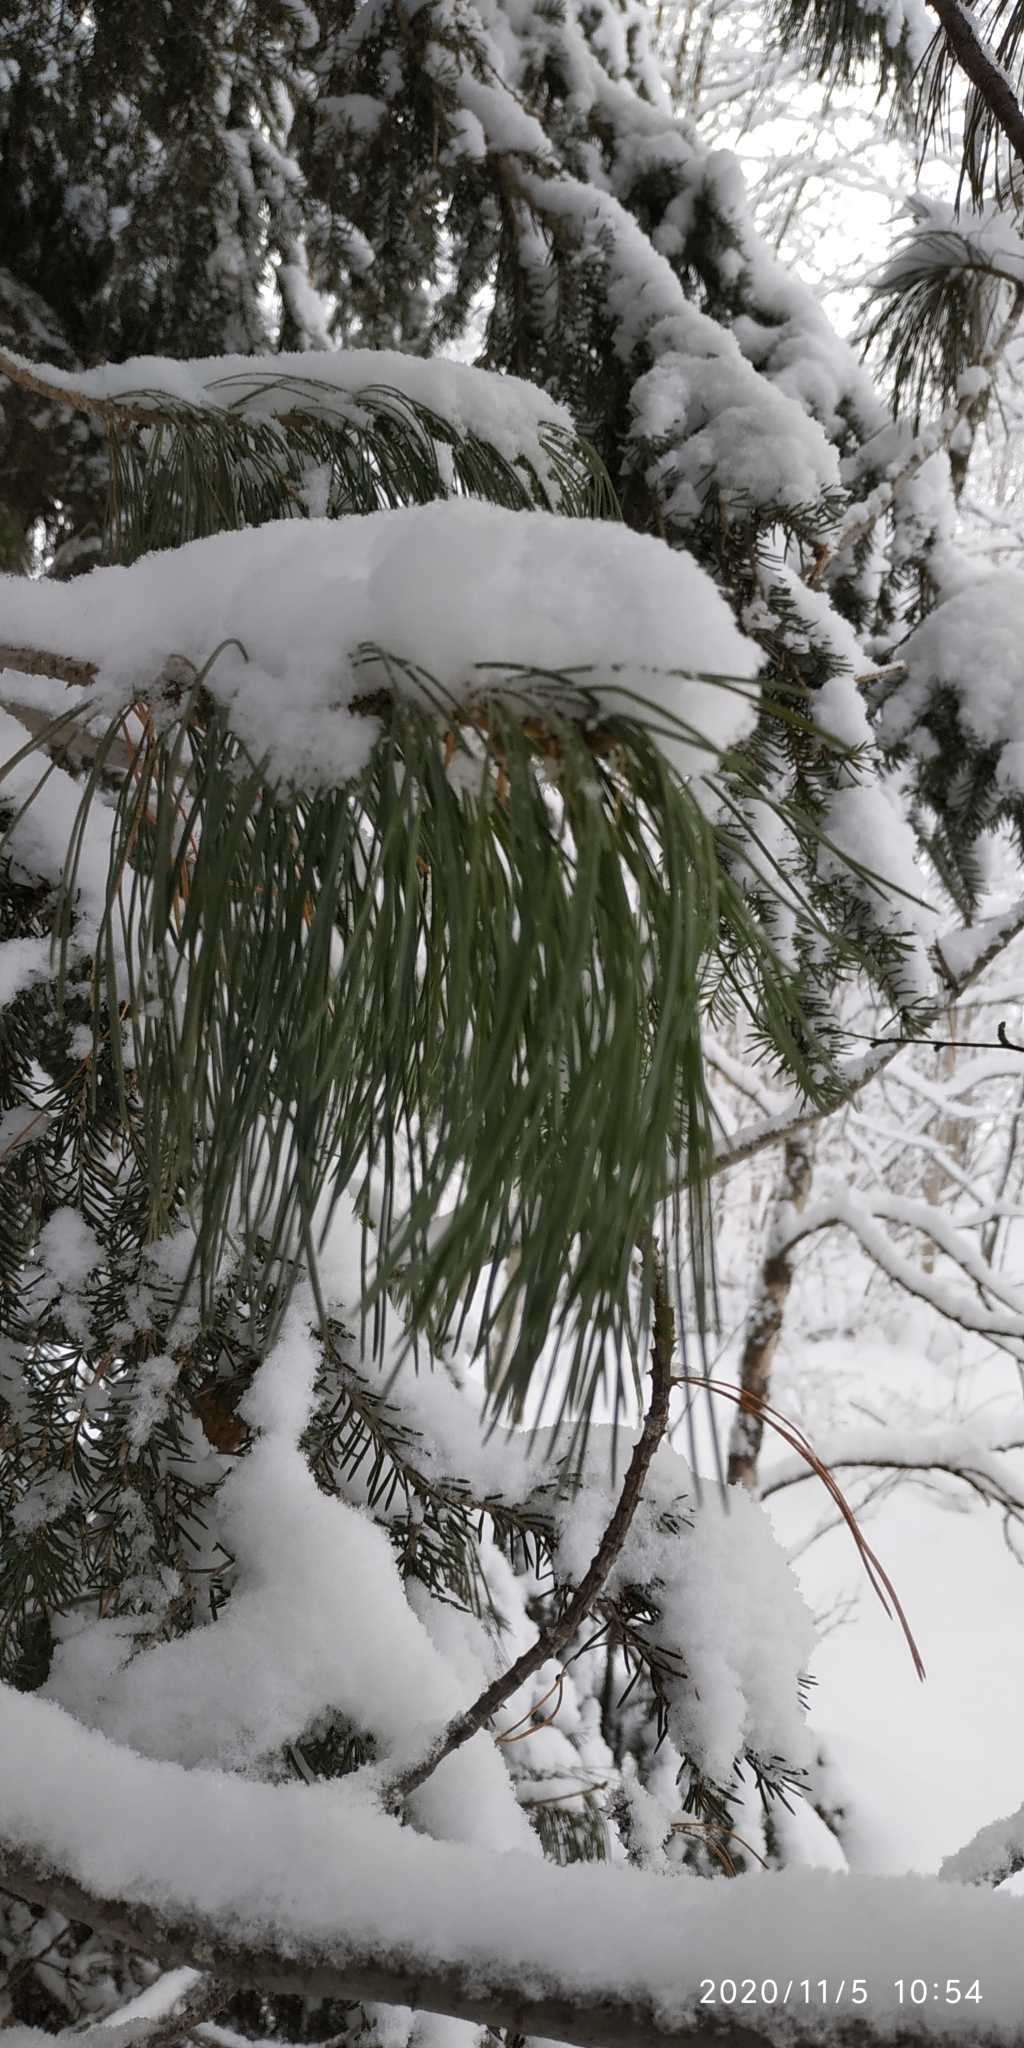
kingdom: Plantae
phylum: Tracheophyta
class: Pinopsida
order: Pinales
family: Pinaceae
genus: Pinus
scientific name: Pinus sibirica
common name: Siberian pine
